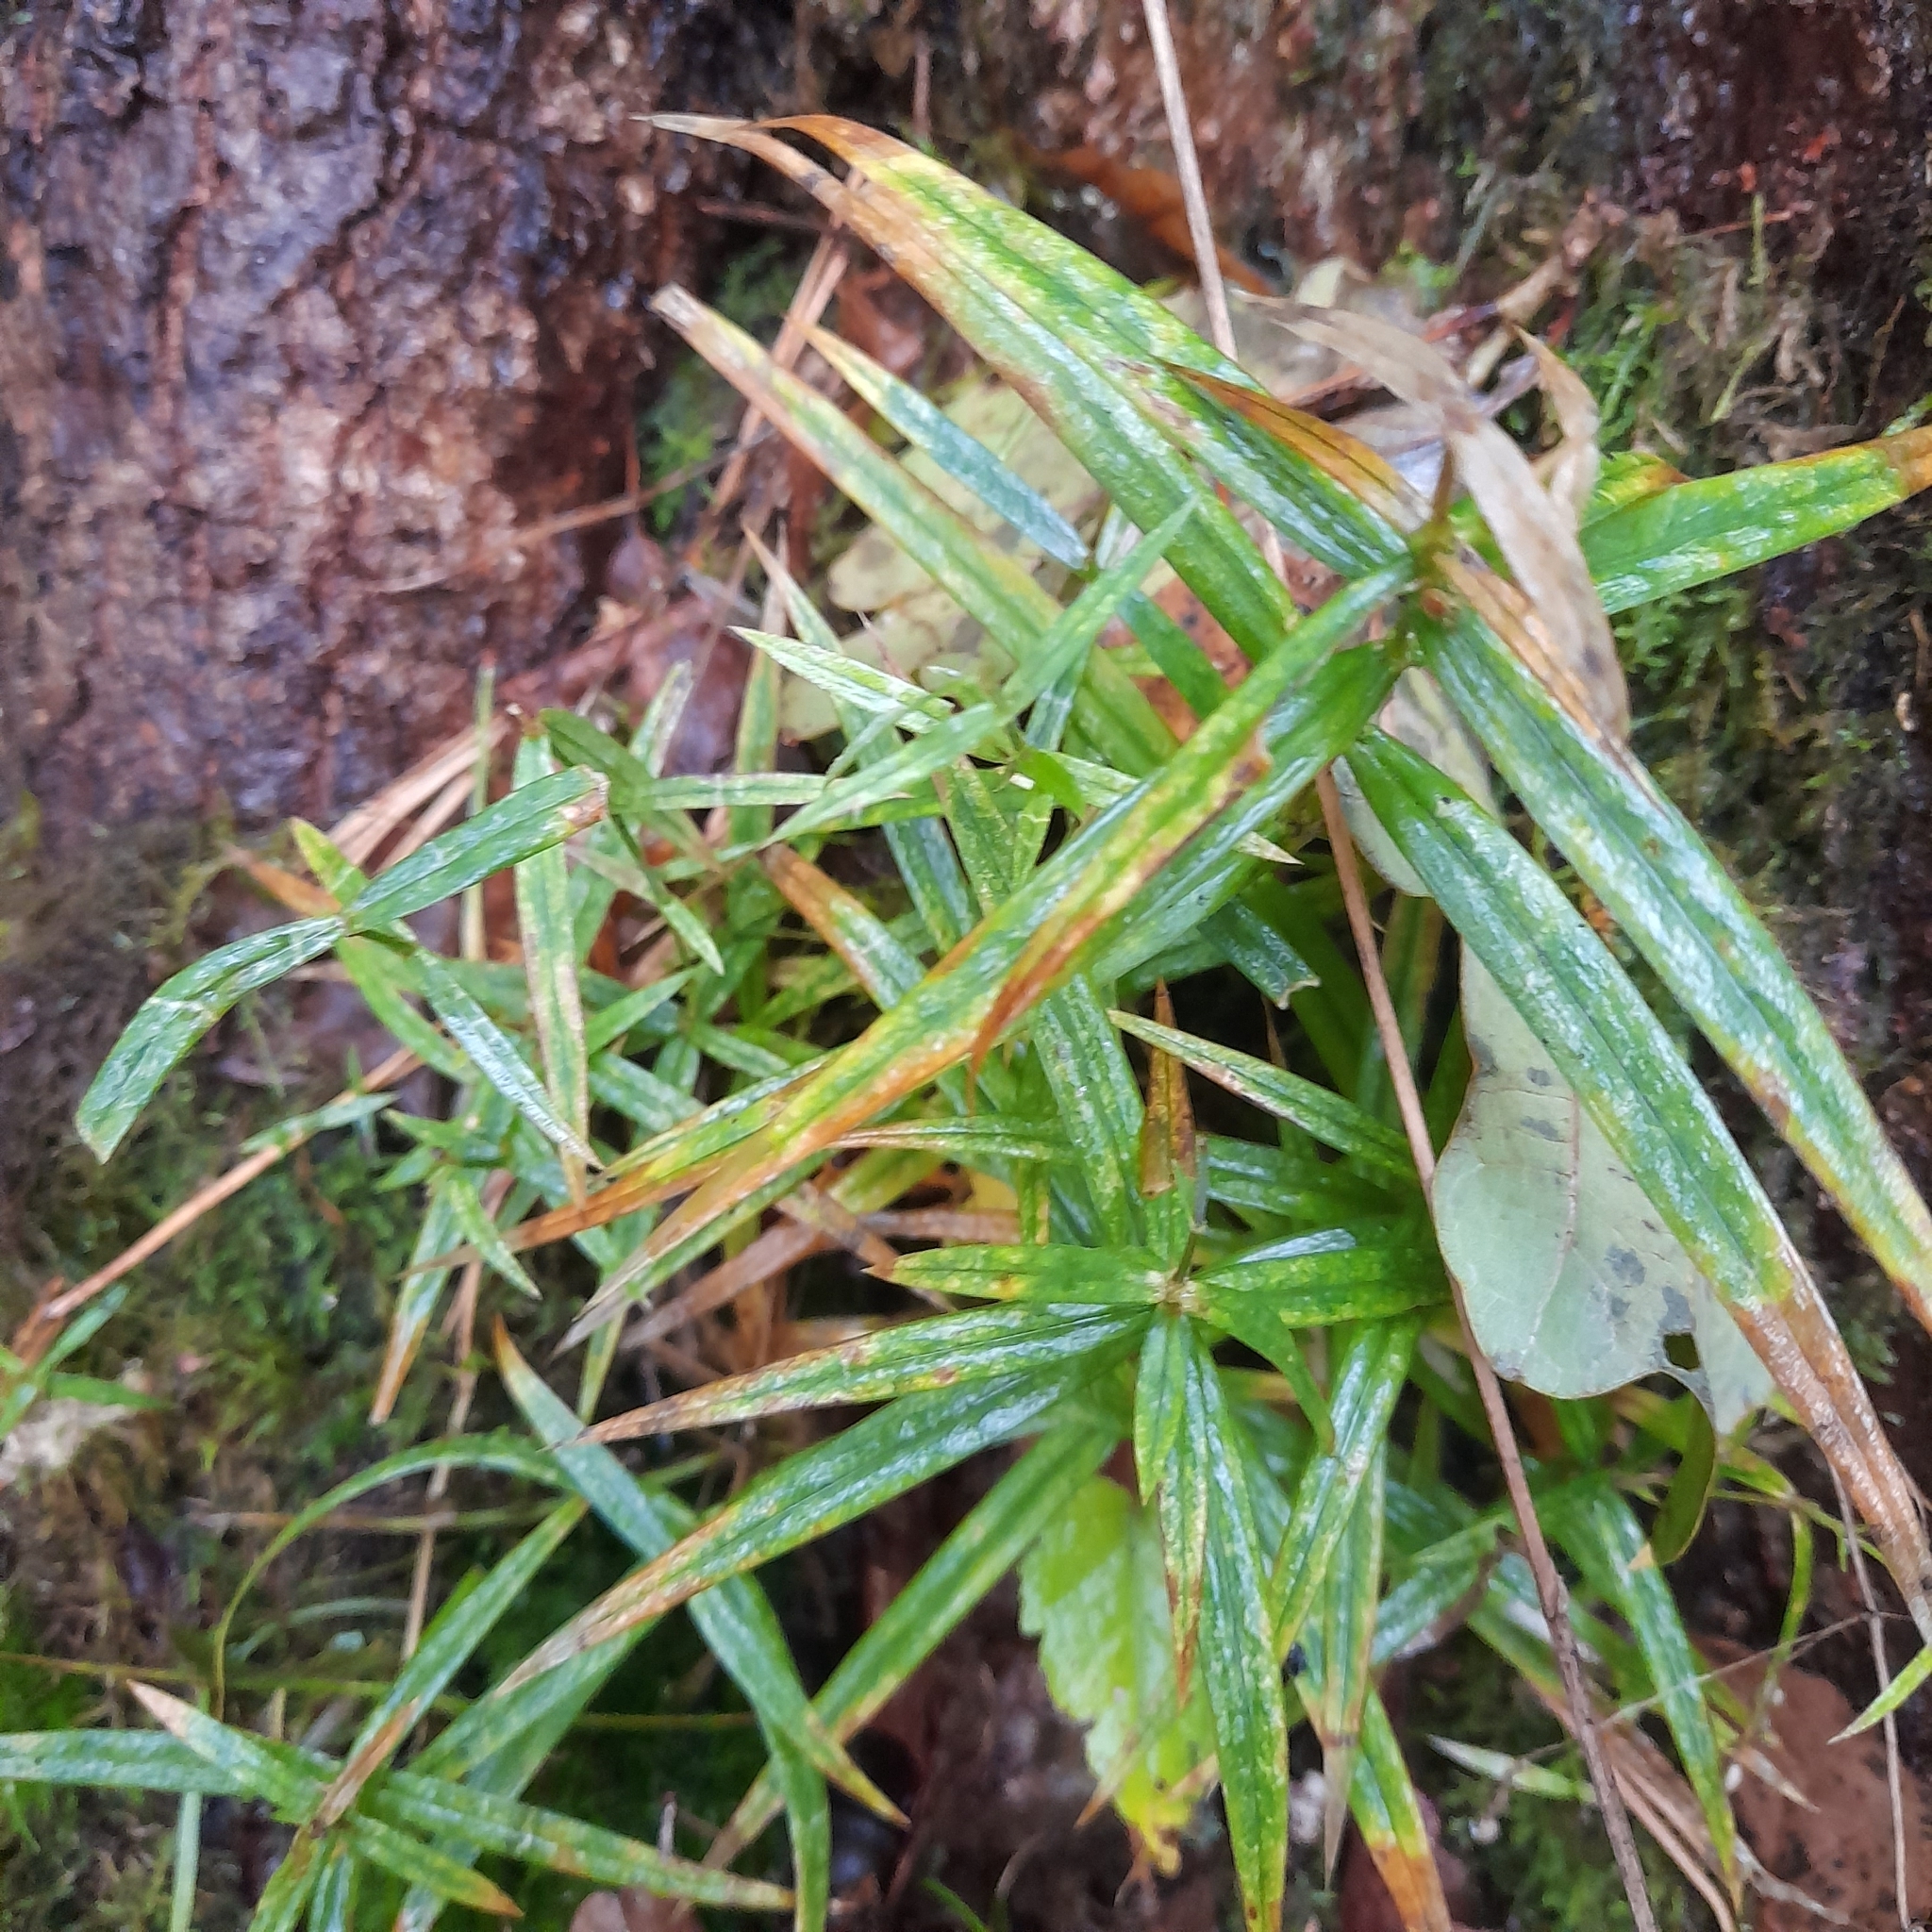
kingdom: Plantae
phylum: Tracheophyta
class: Magnoliopsida
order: Caryophyllales
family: Caryophyllaceae
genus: Rabelera
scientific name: Rabelera holostea
